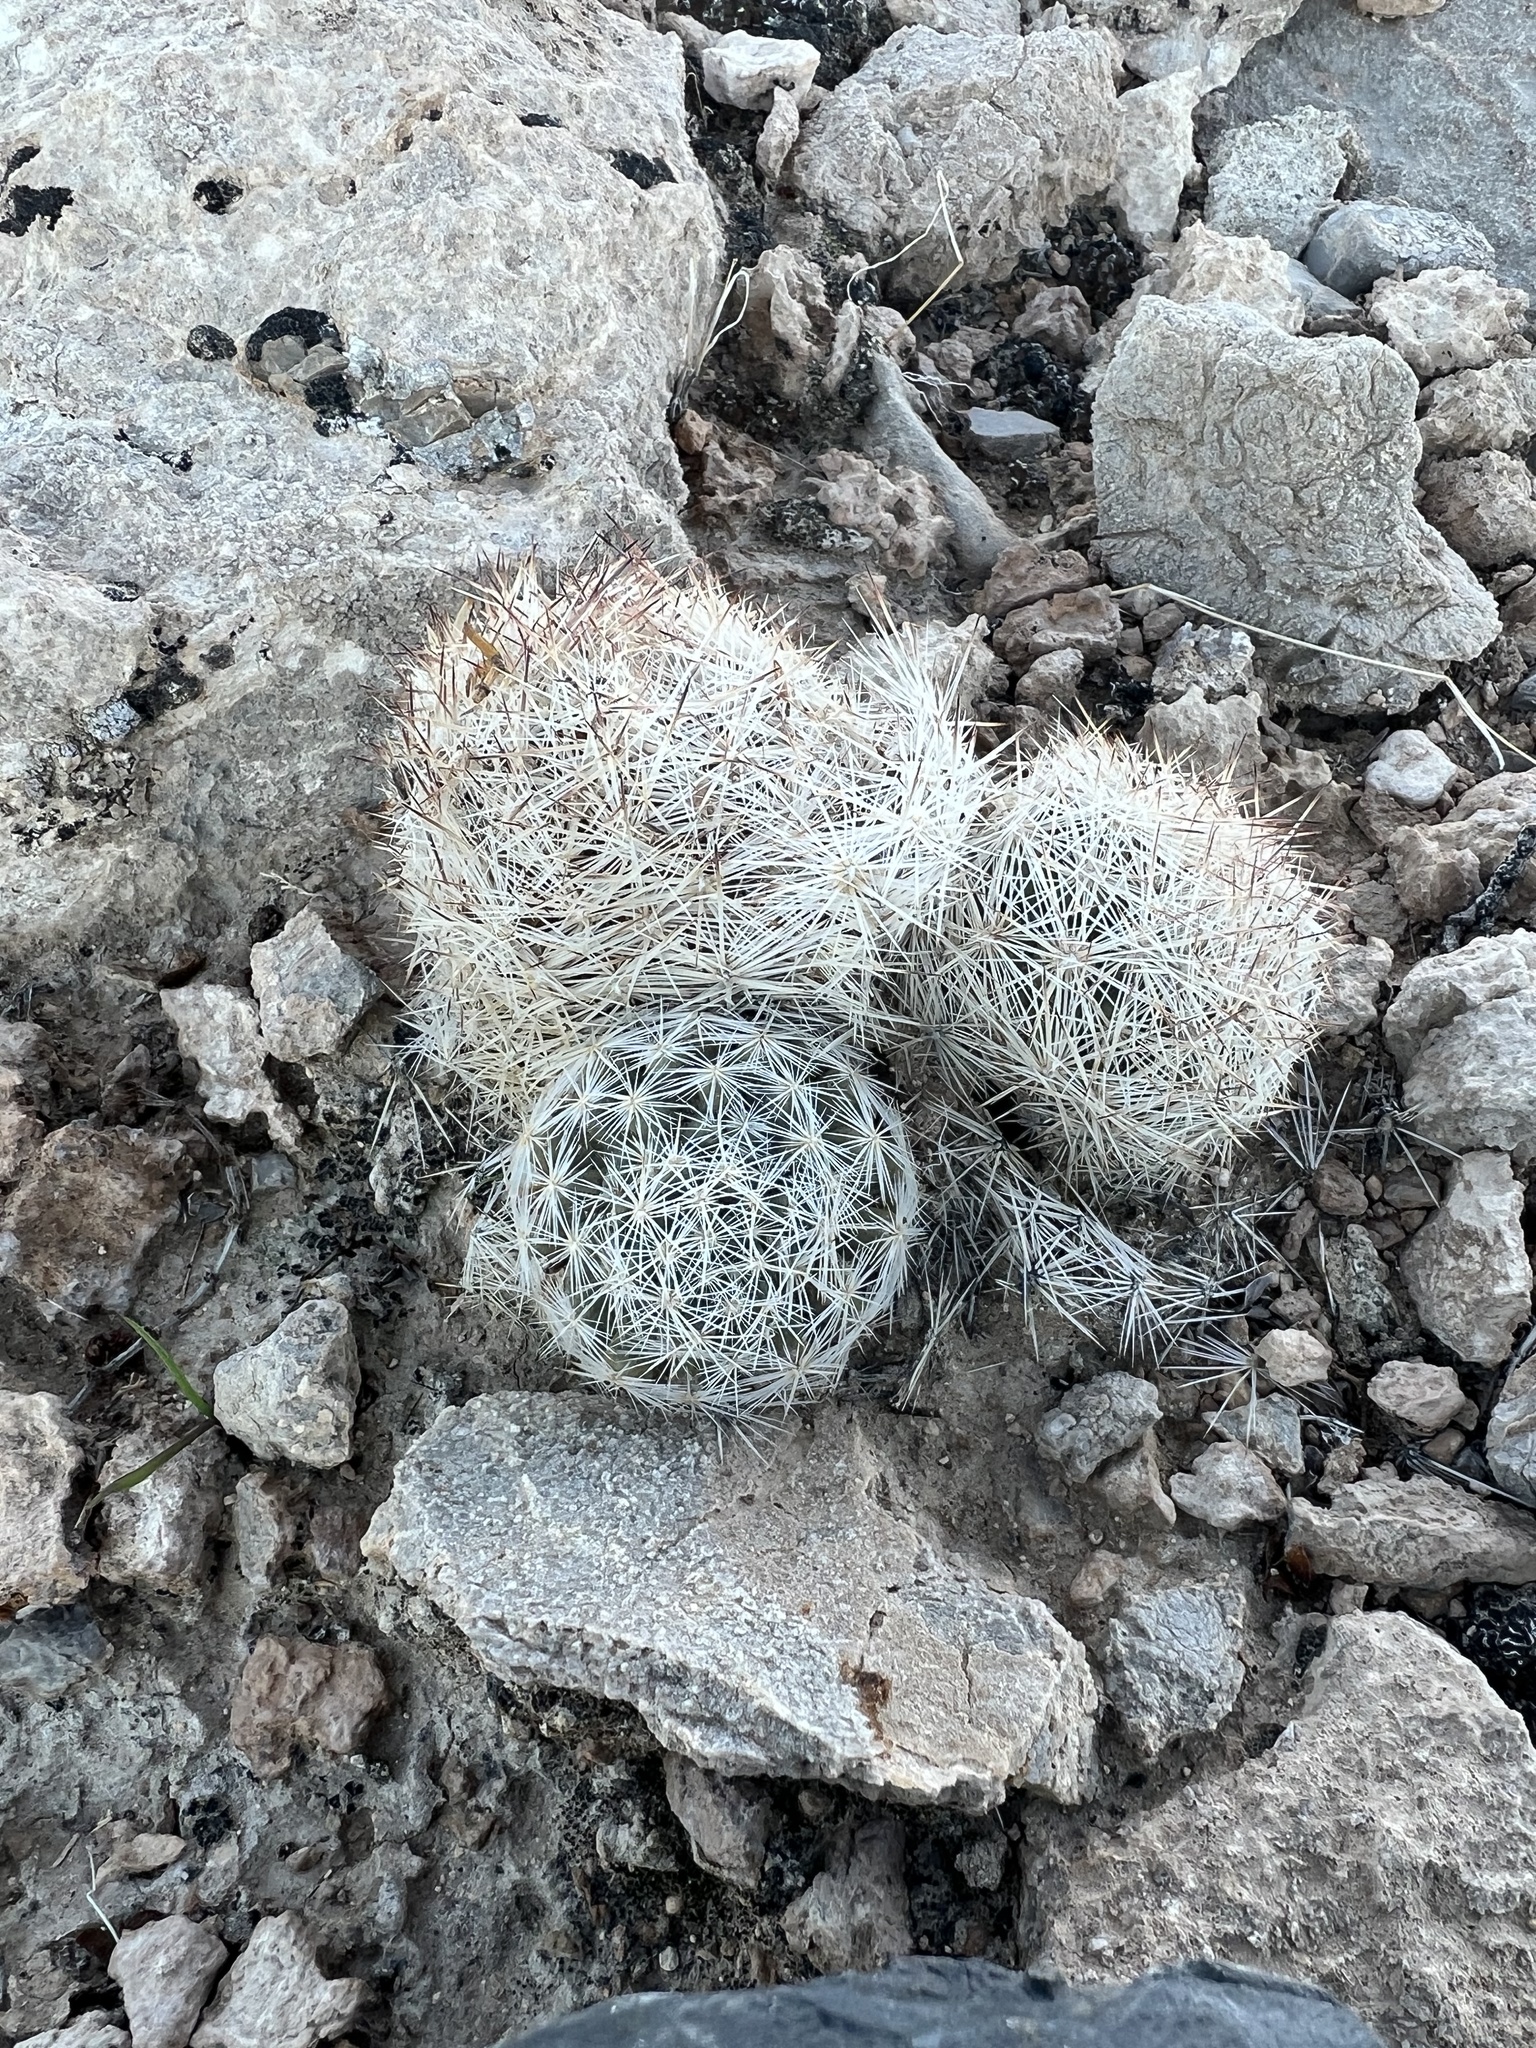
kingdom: Plantae
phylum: Tracheophyta
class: Magnoliopsida
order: Caryophyllales
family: Cactaceae
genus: Pelecyphora
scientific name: Pelecyphora dasyacantha
